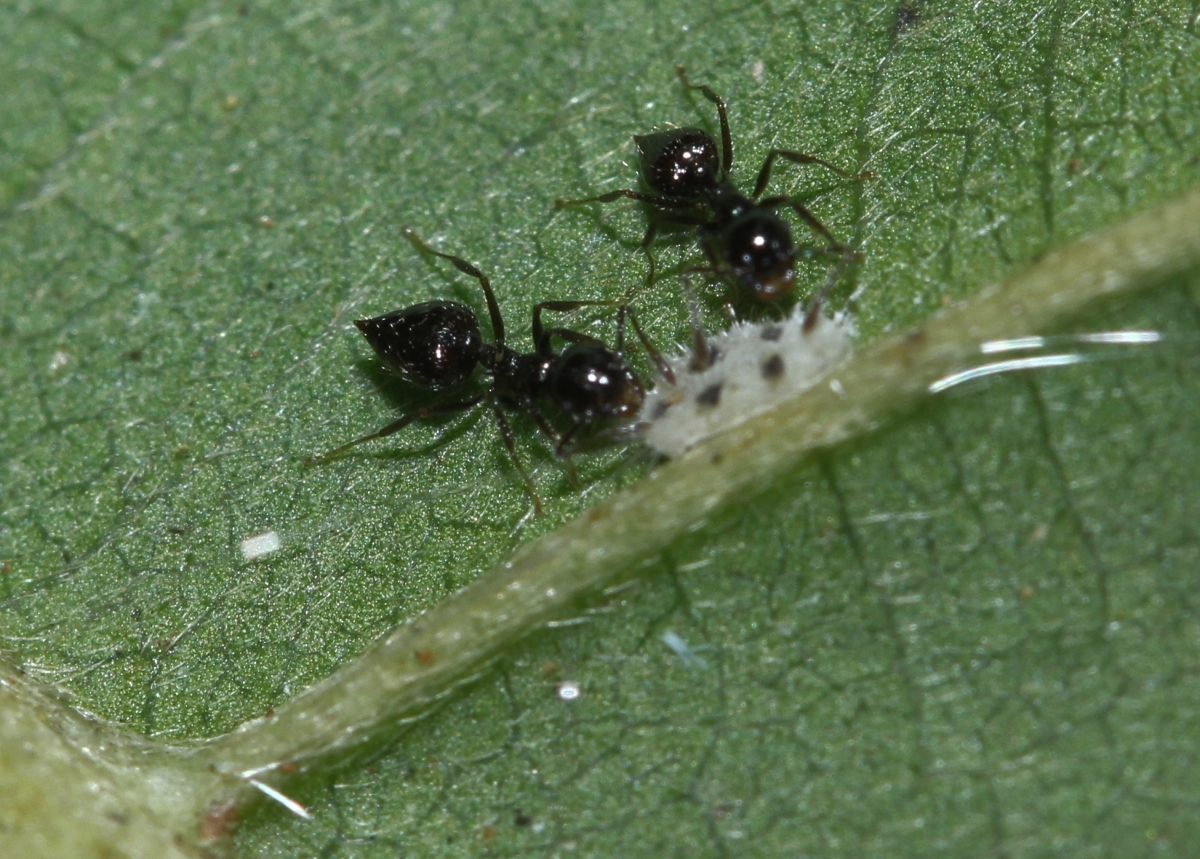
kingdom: Animalia
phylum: Arthropoda
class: Insecta
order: Hymenoptera
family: Formicidae
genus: Orthocrema
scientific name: Orthocrema
